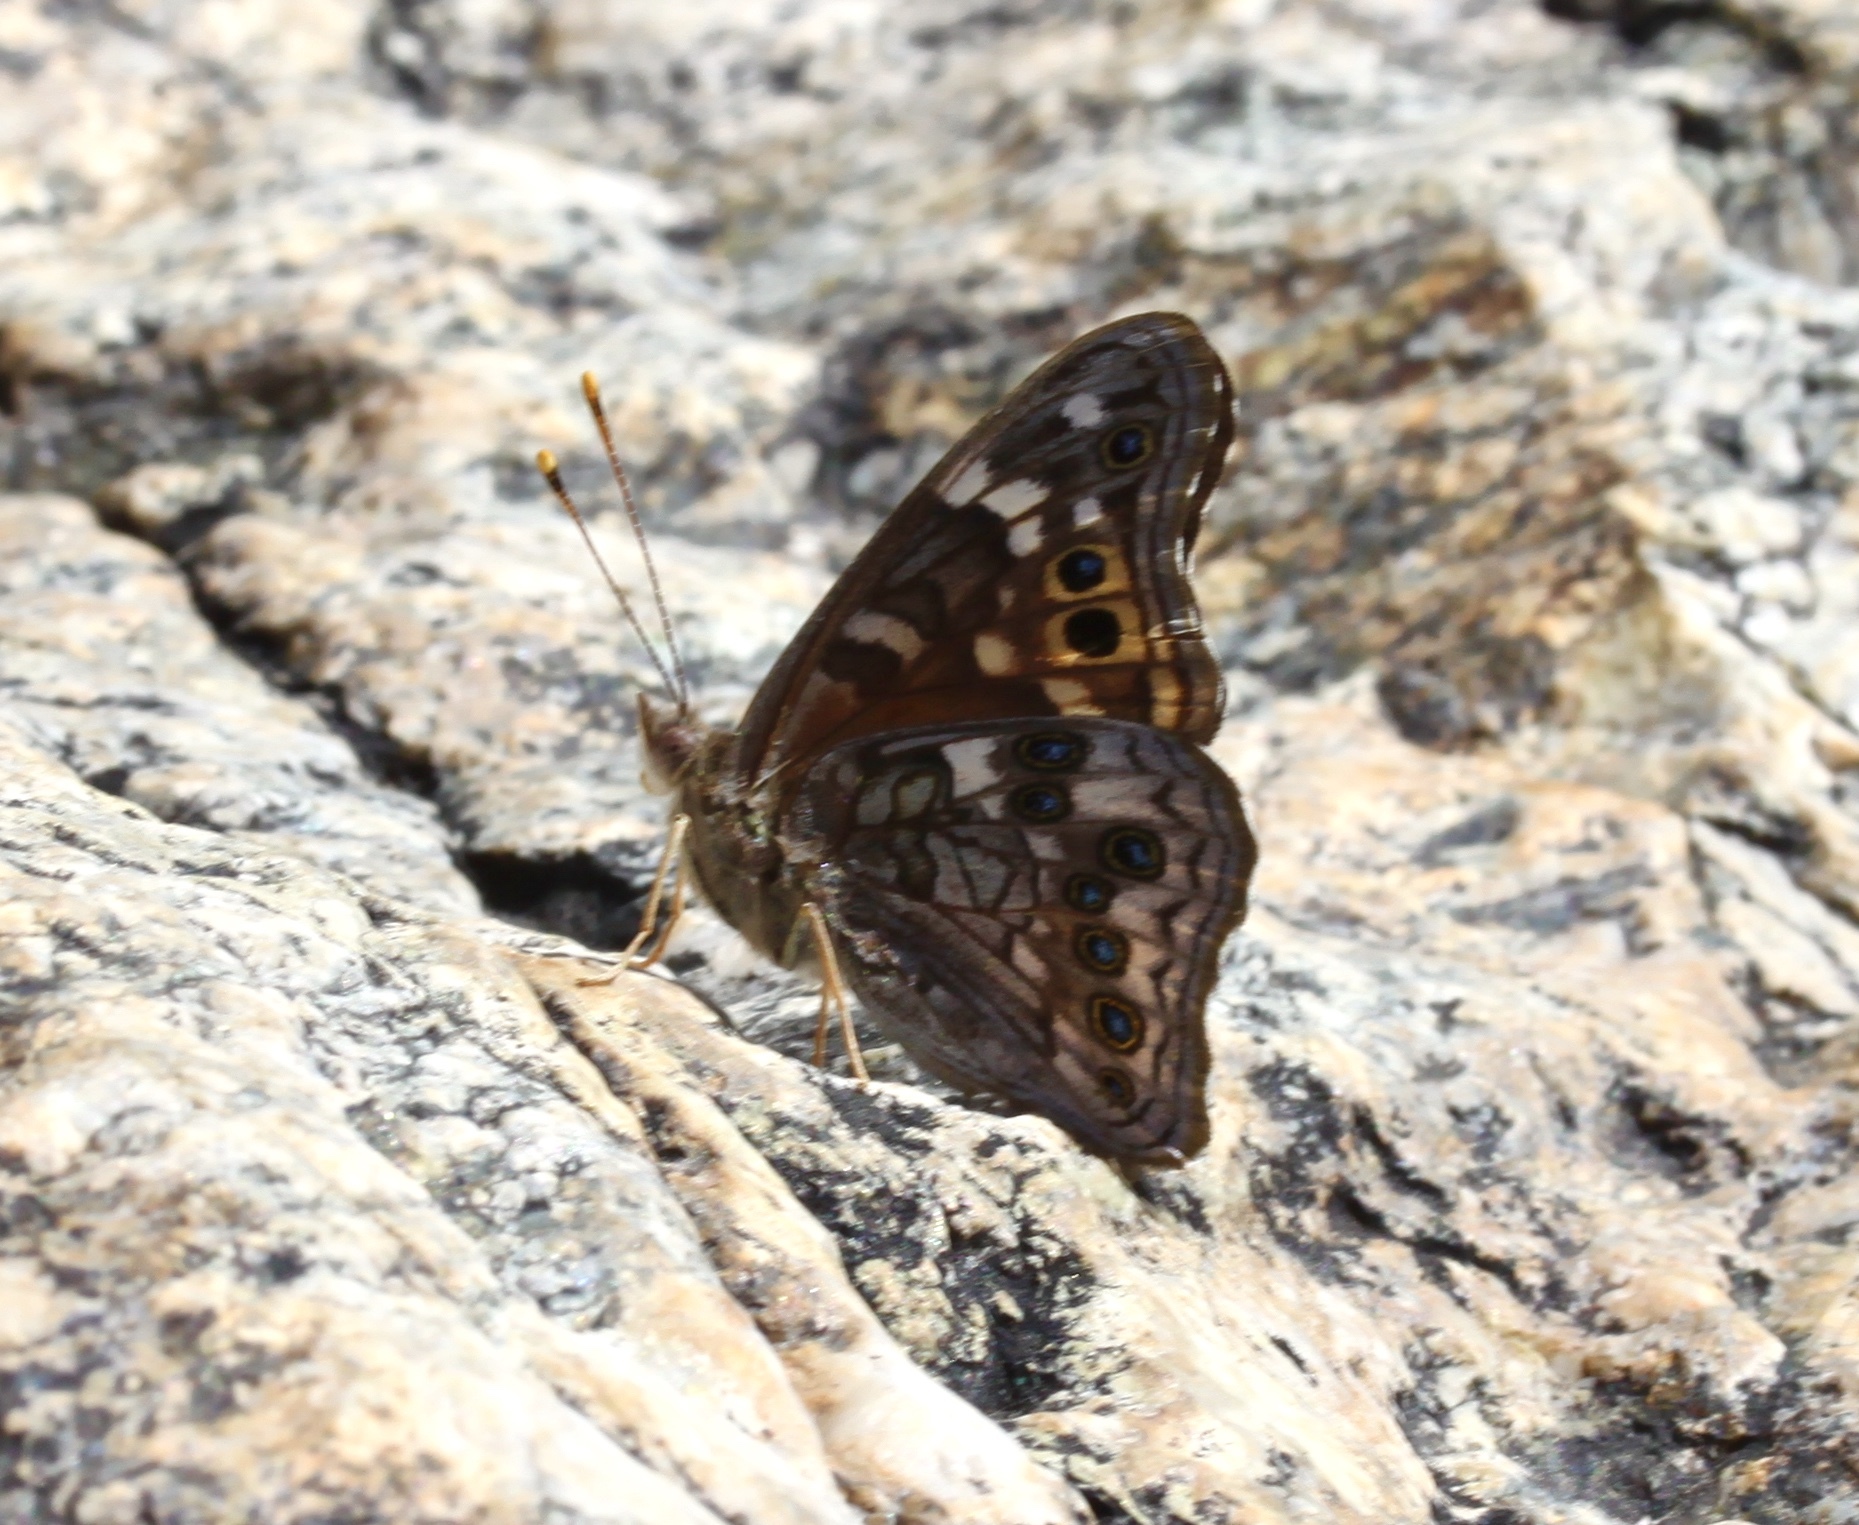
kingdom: Animalia
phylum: Arthropoda
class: Insecta
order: Lepidoptera
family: Nymphalidae
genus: Asterocampa
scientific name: Asterocampa leilia
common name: Empress leilia
